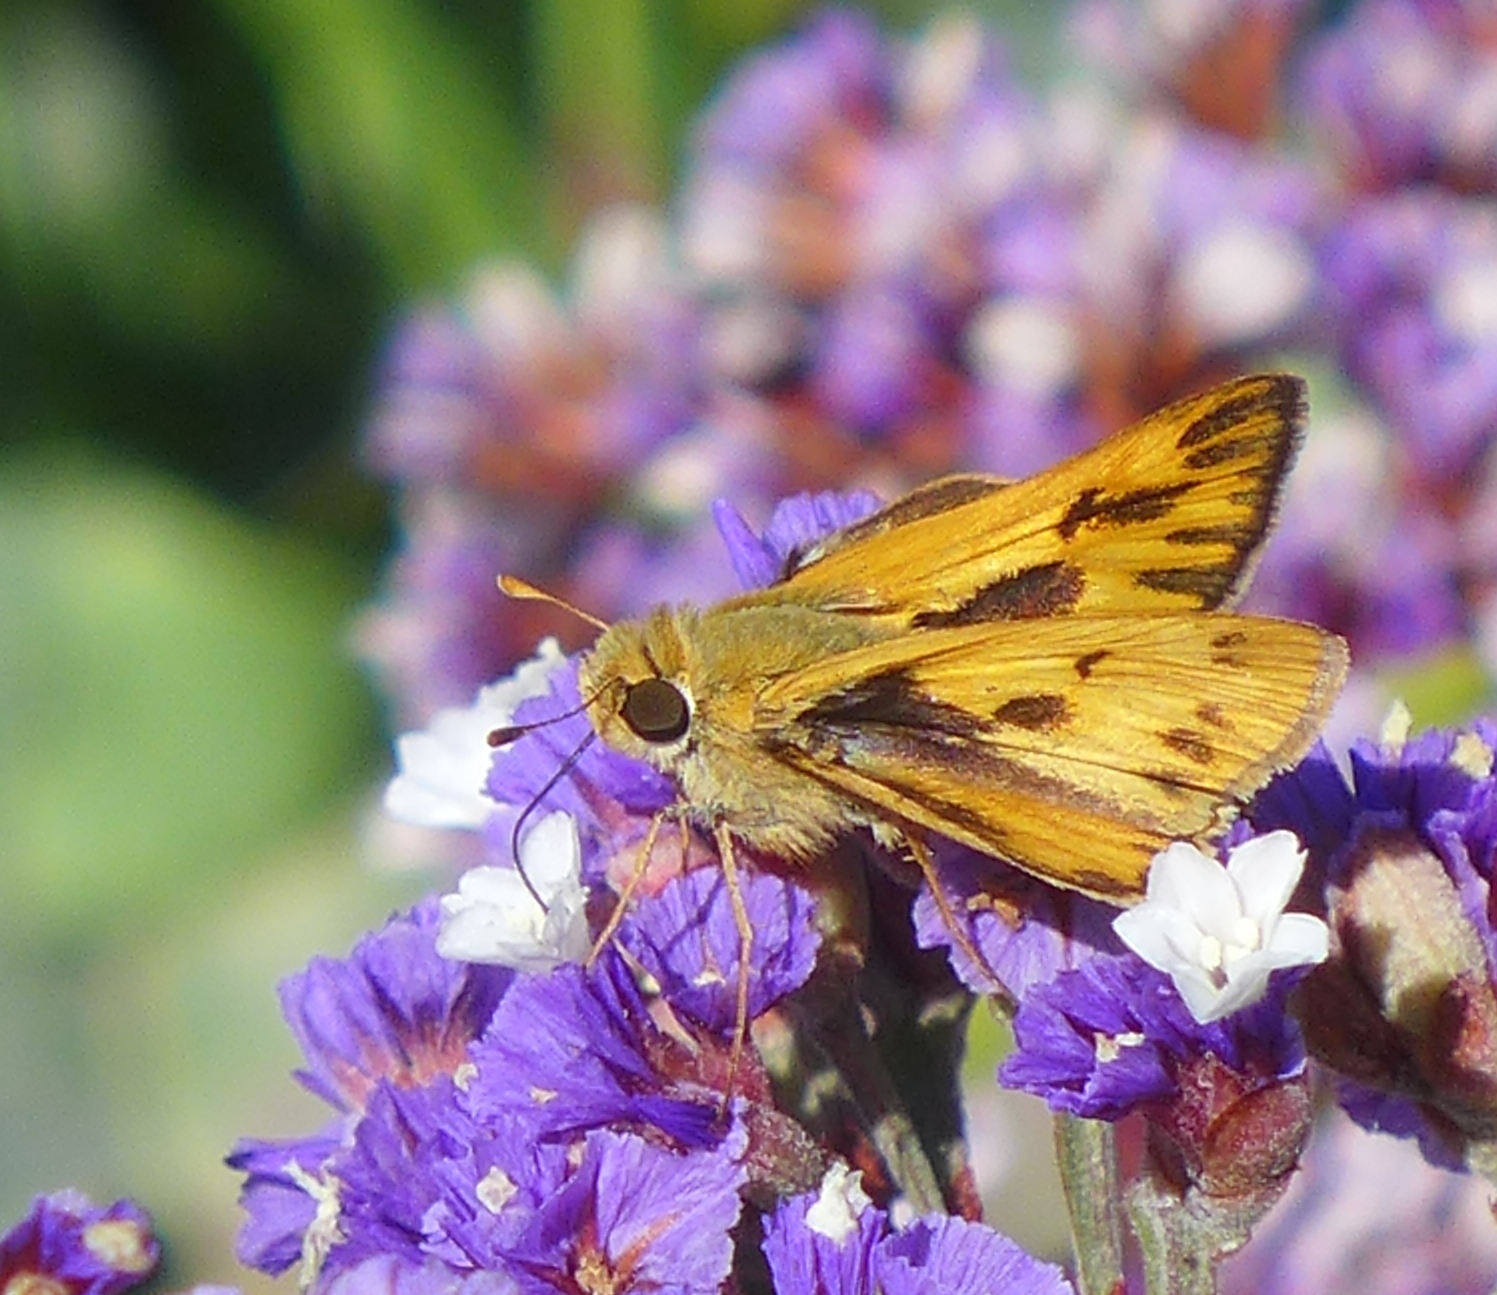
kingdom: Animalia
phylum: Arthropoda
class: Insecta
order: Lepidoptera
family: Hesperiidae
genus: Hylephila
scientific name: Hylephila phyleus
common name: Fiery skipper
